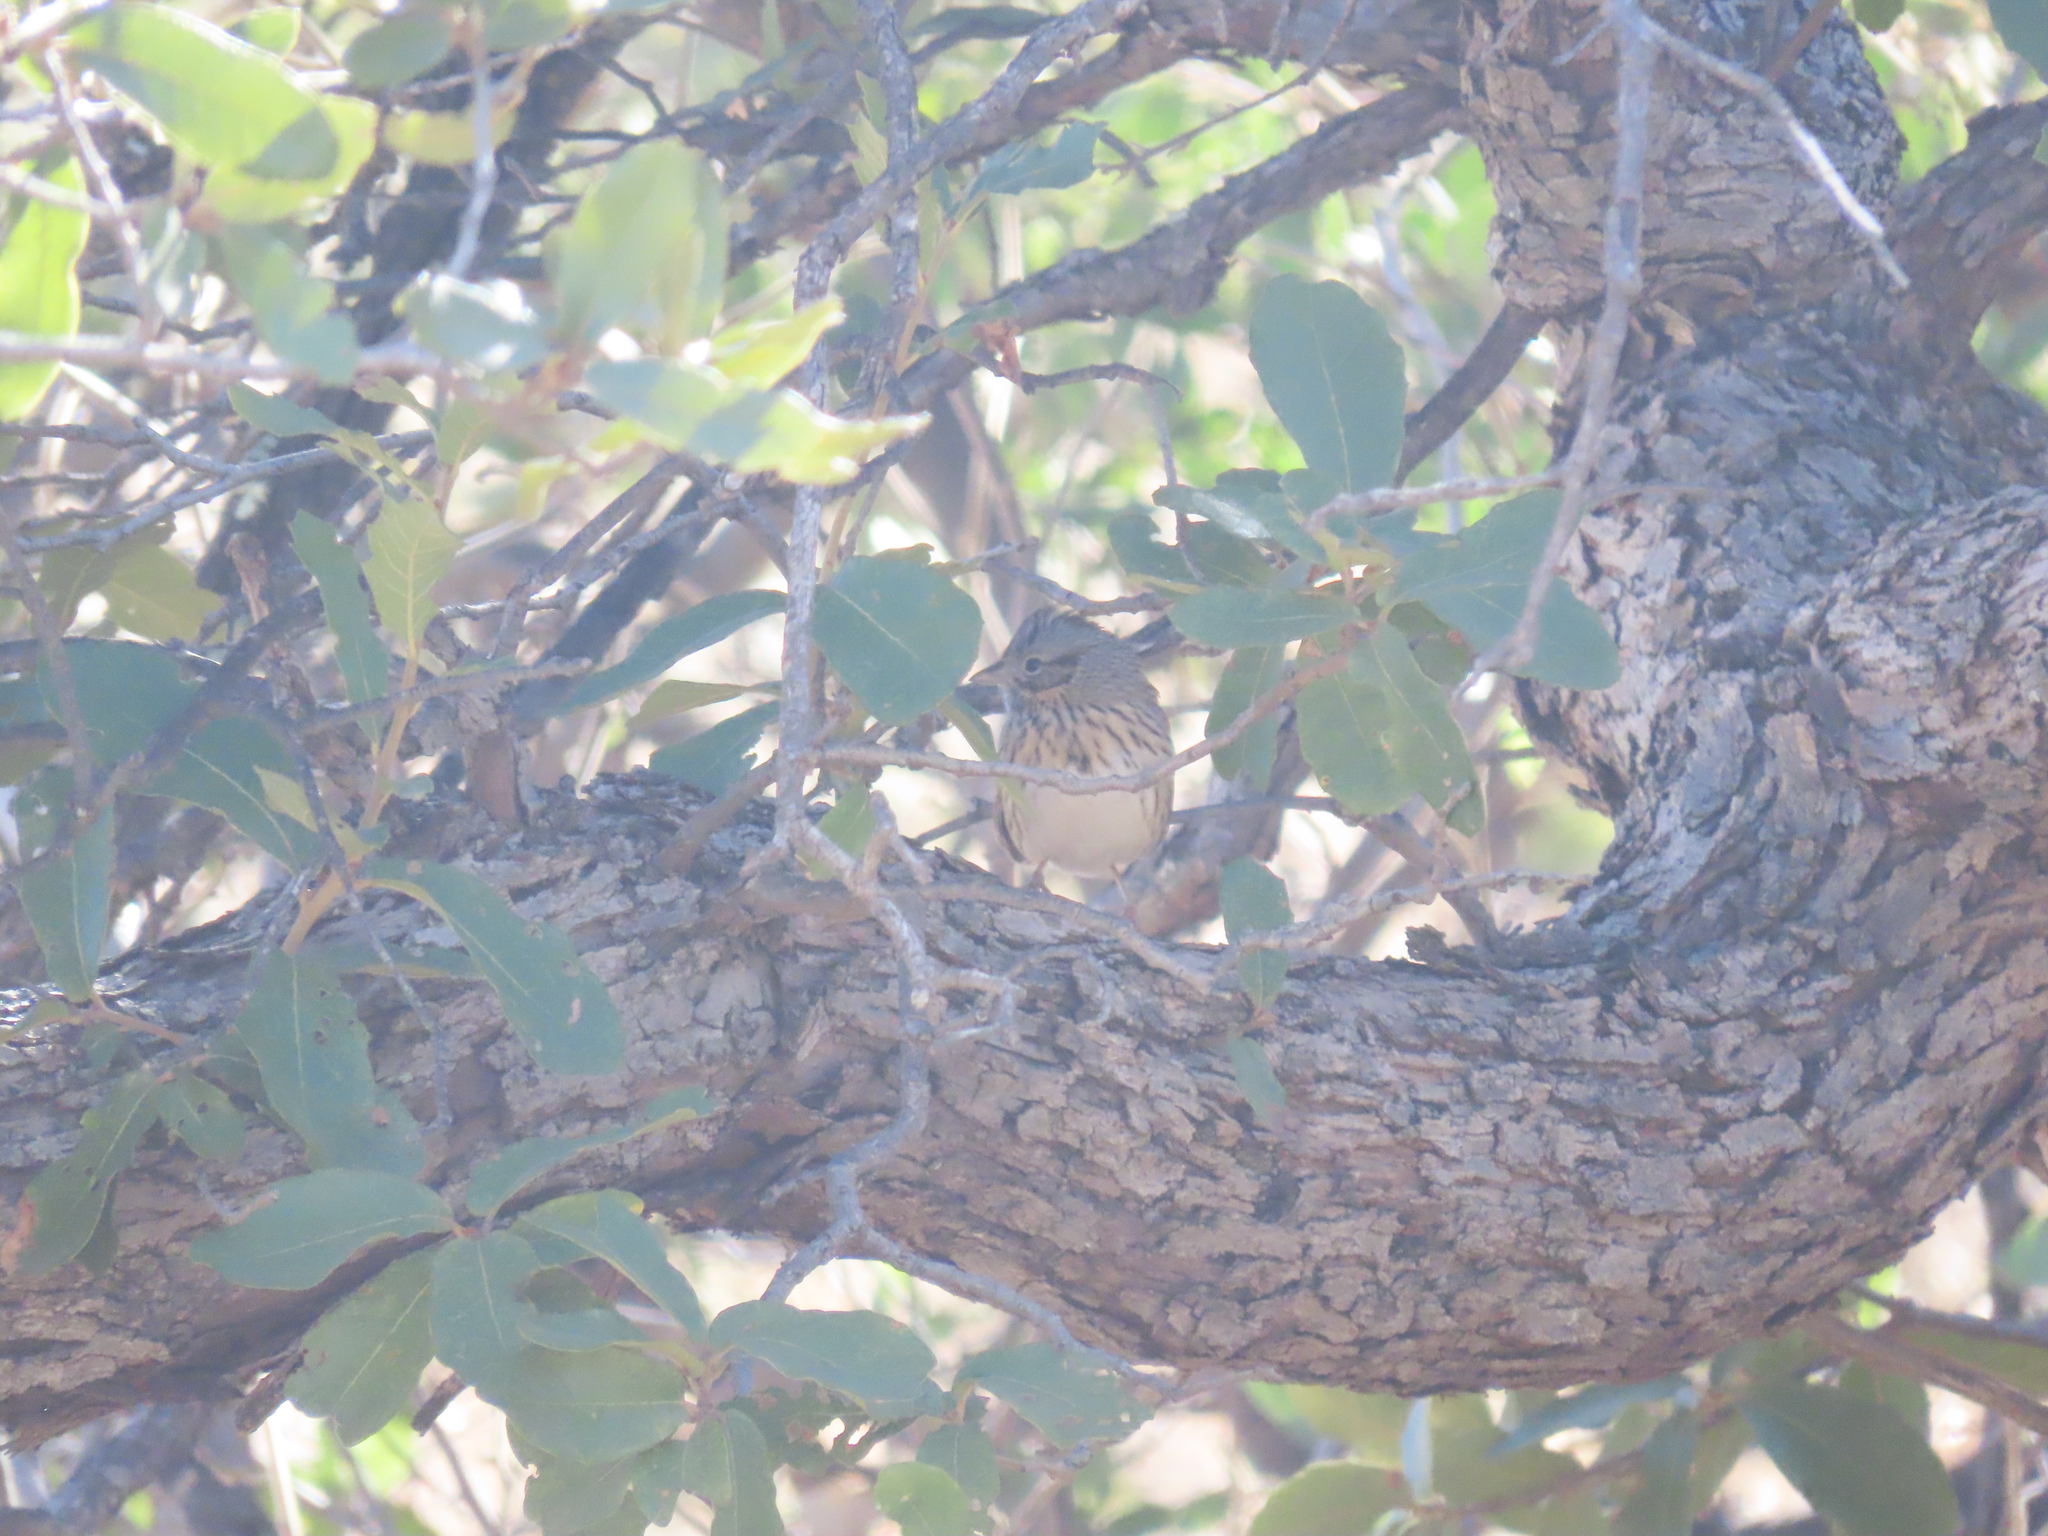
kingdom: Animalia
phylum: Chordata
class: Aves
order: Passeriformes
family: Passerellidae
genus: Melospiza
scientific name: Melospiza lincolnii
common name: Lincoln's sparrow
